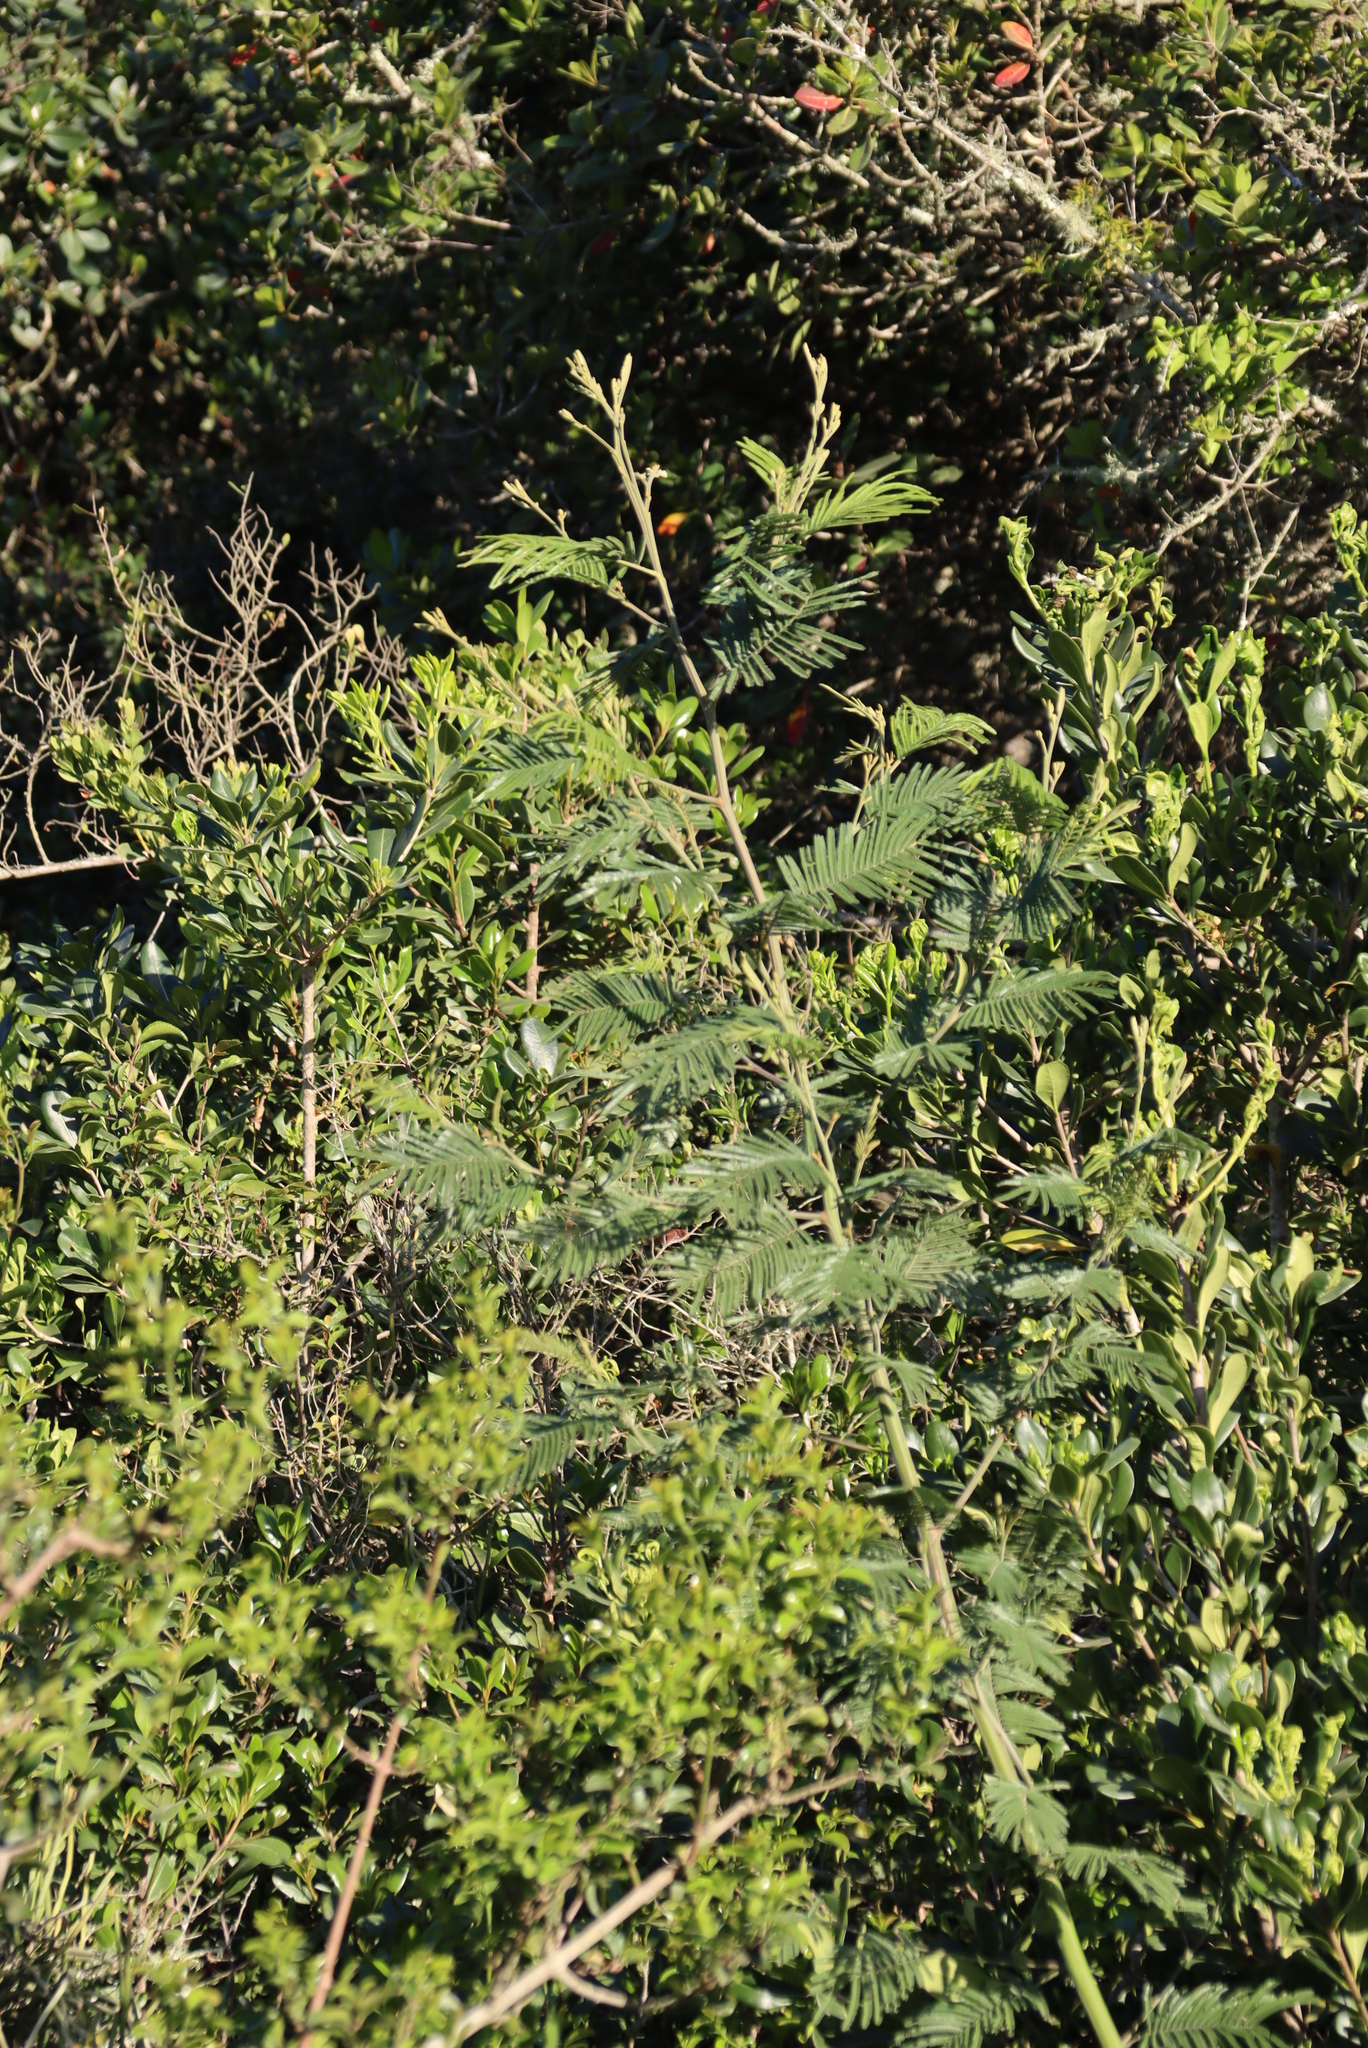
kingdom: Plantae
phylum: Tracheophyta
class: Magnoliopsida
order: Fabales
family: Fabaceae
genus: Acacia
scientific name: Acacia mearnsii
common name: Black wattle
